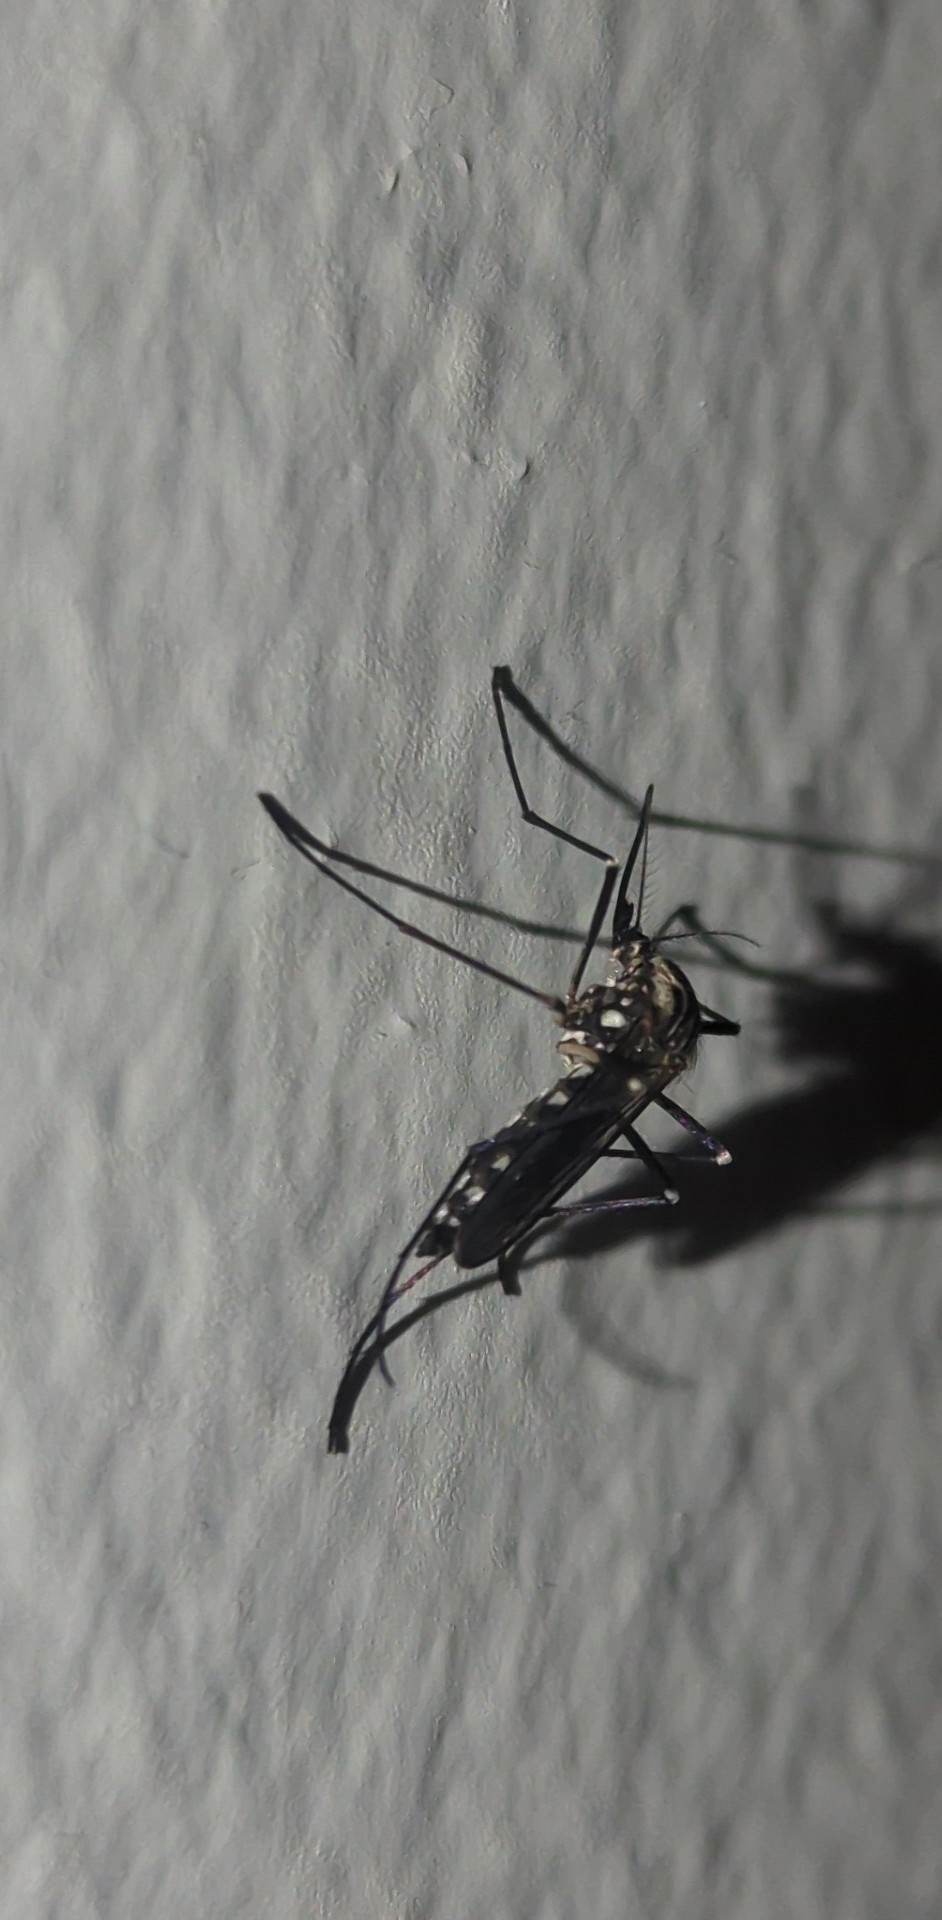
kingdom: Animalia
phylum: Arthropoda
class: Insecta
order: Diptera
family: Culicidae
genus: Aedes
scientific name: Aedes geniculatus
